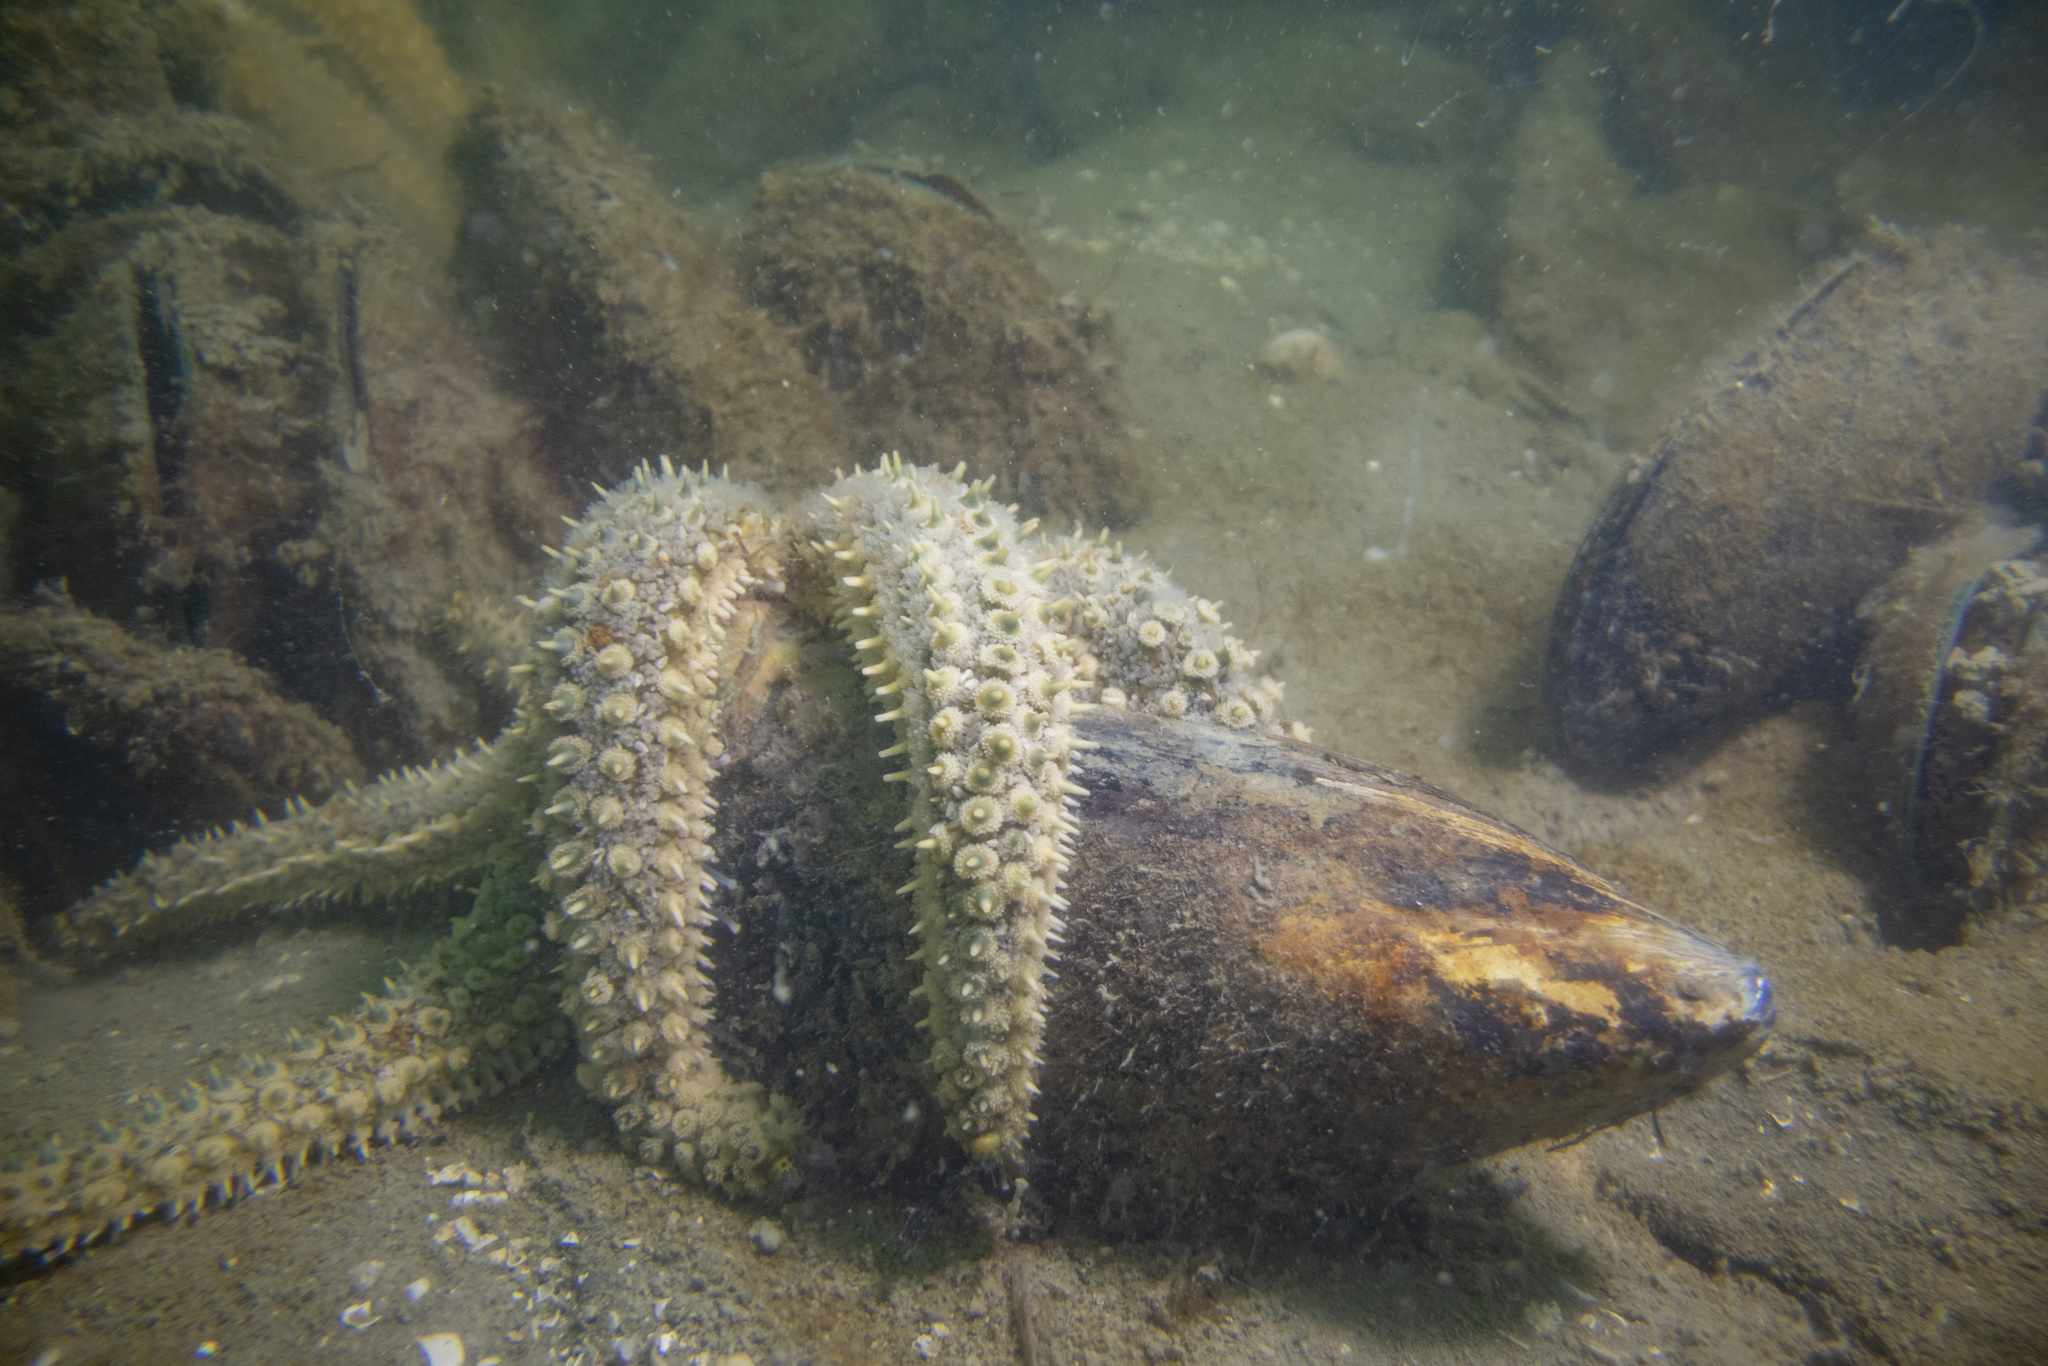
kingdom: Animalia
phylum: Echinodermata
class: Asteroidea
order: Forcipulatida
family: Asteriidae
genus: Coscinasterias
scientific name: Coscinasterias muricata
